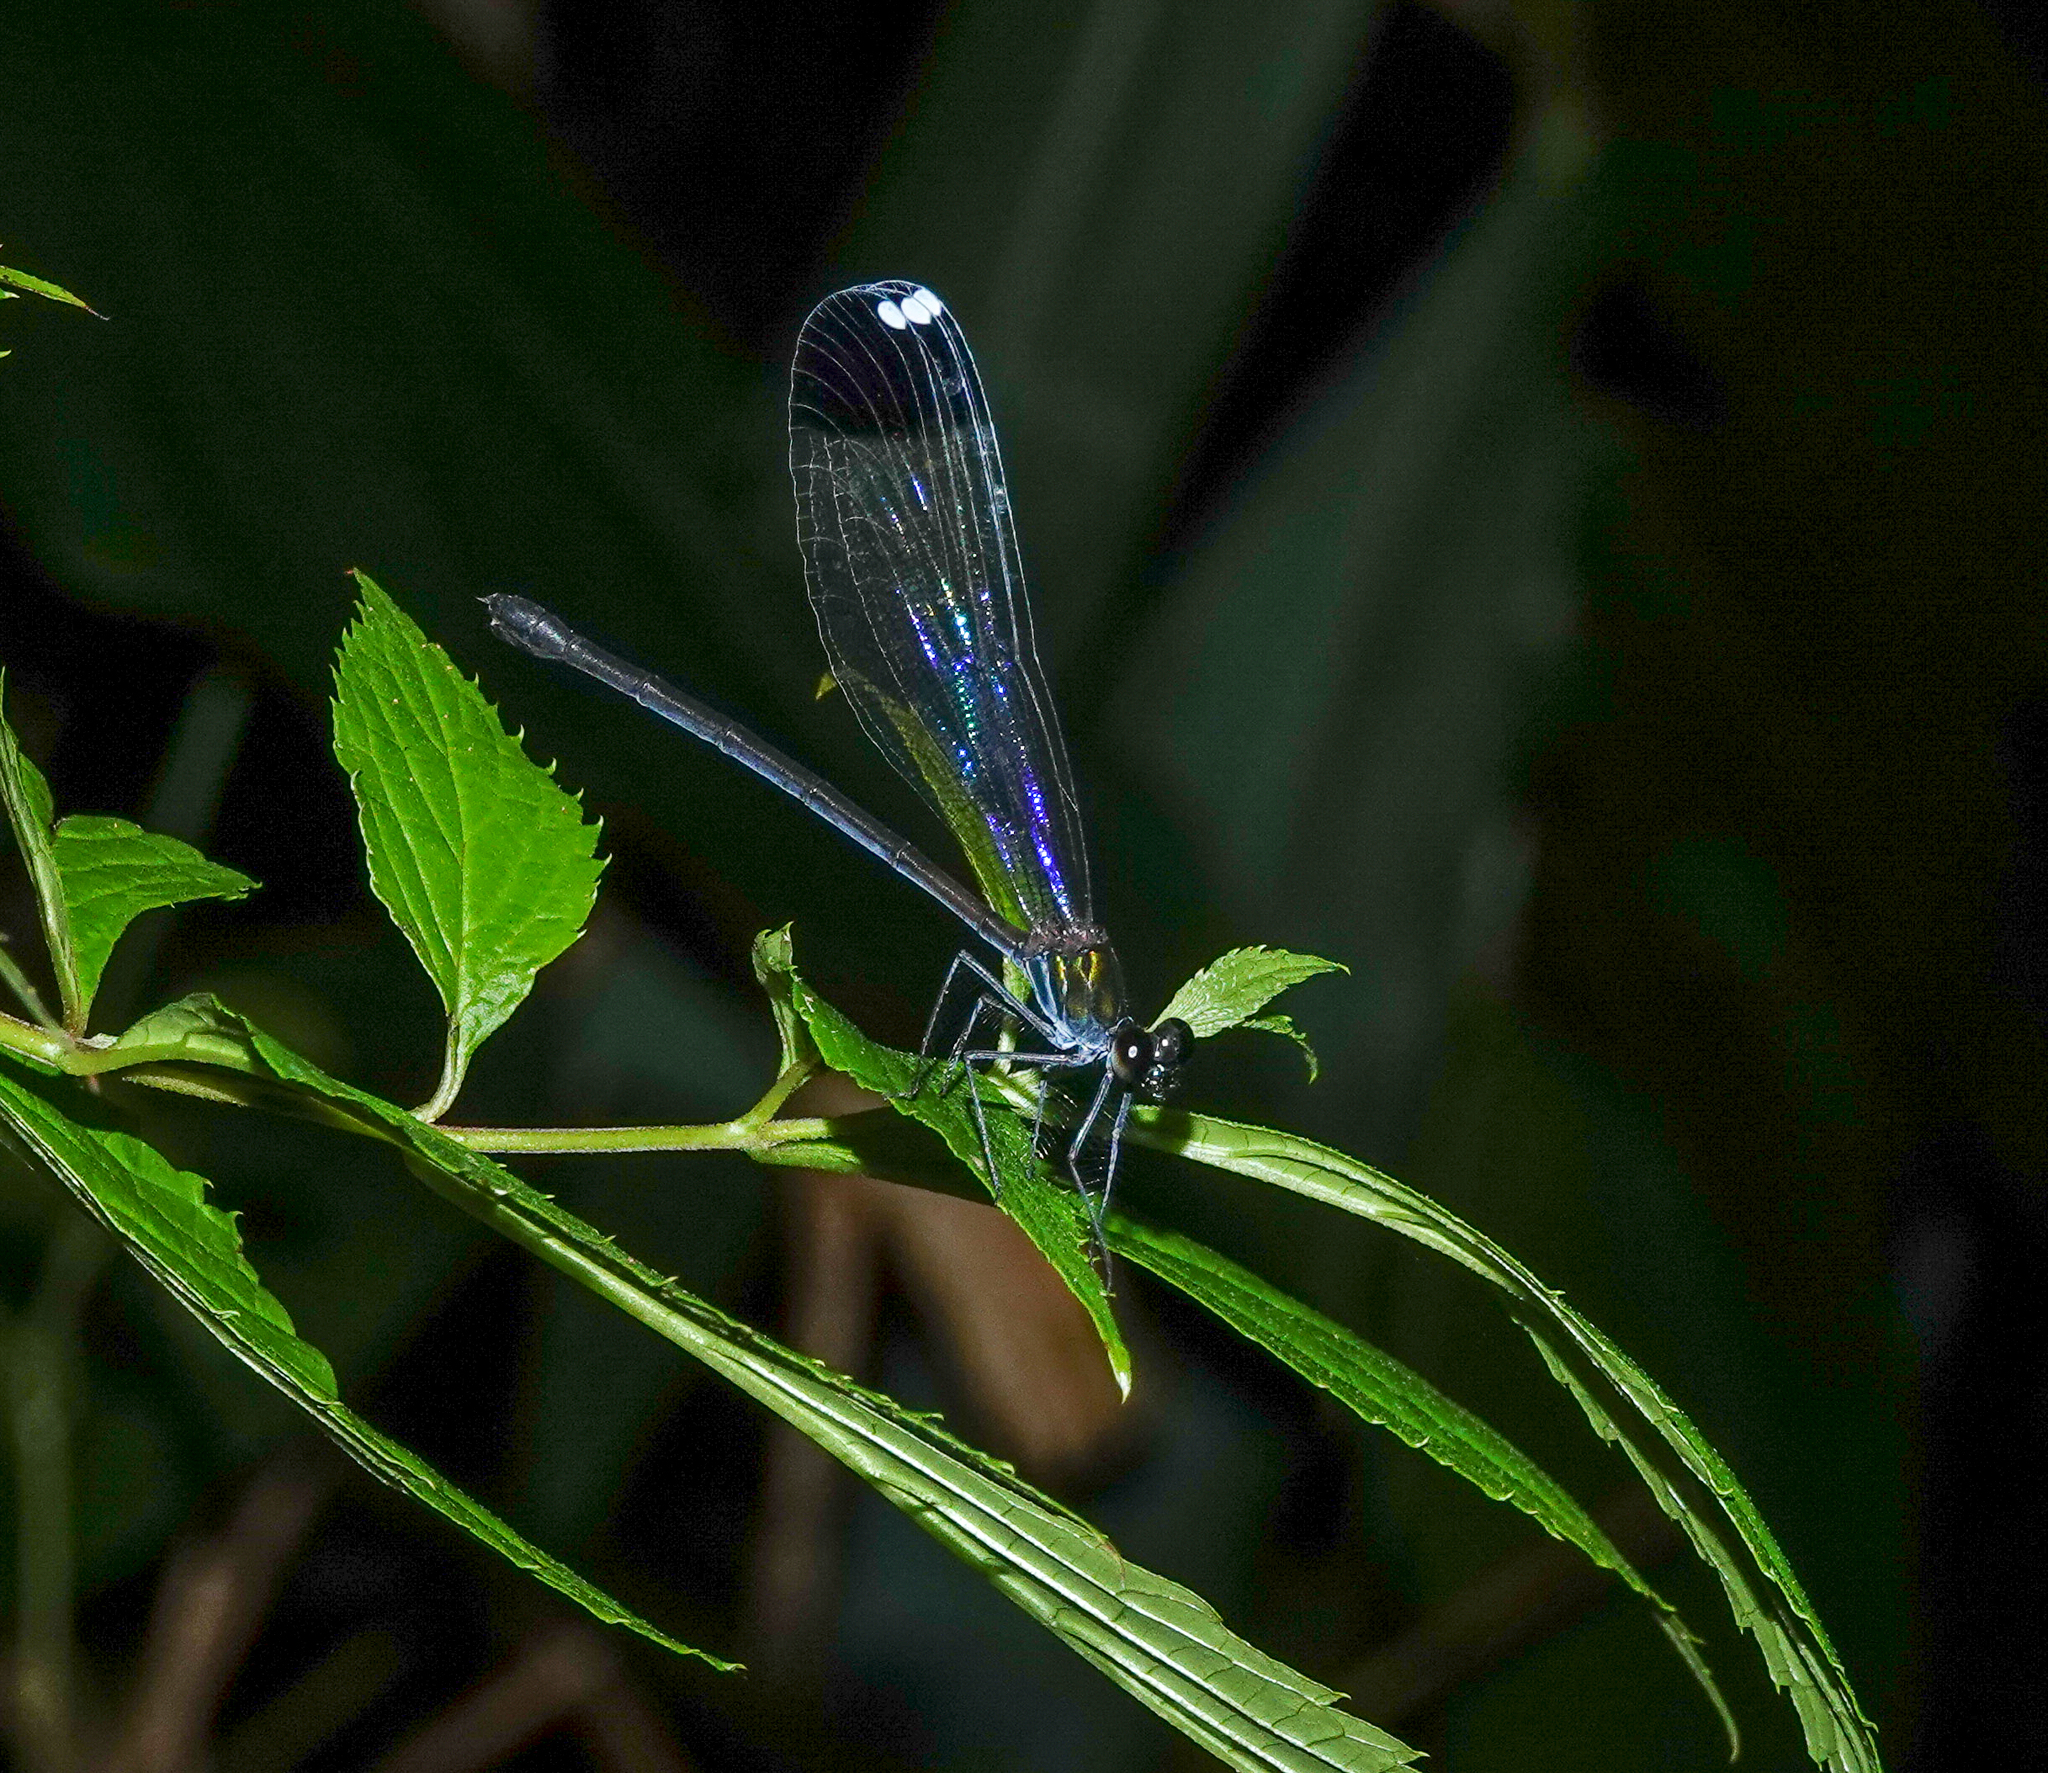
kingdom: Animalia
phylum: Arthropoda
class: Insecta
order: Odonata
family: Calopterygidae
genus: Echo
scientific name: Echo margarita
